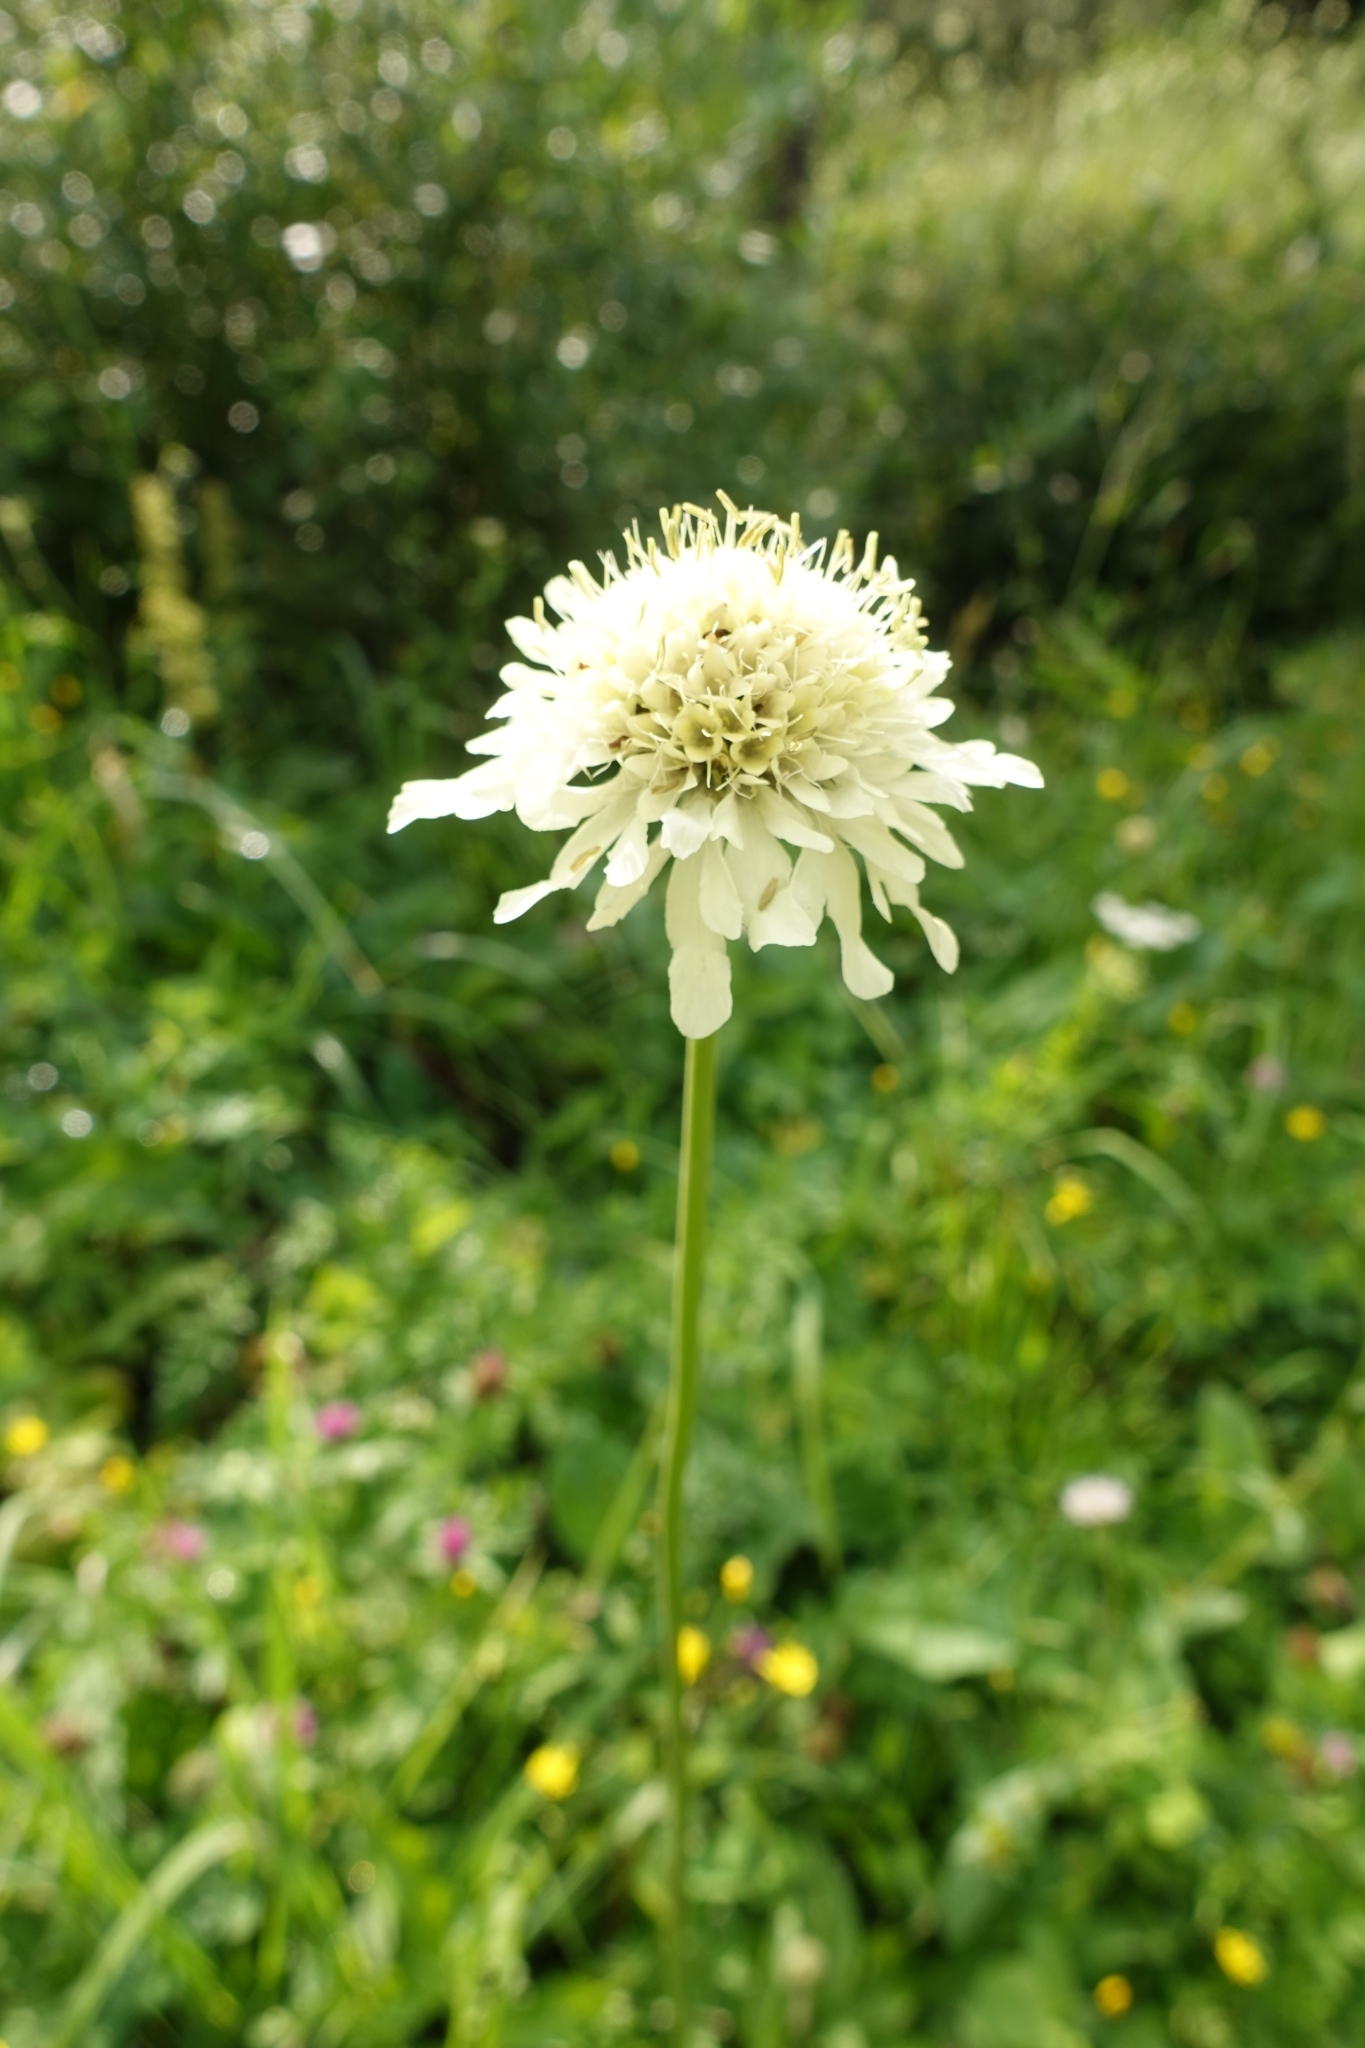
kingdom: Plantae
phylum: Tracheophyta
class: Magnoliopsida
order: Dipsacales
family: Caprifoliaceae
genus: Cephalaria
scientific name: Cephalaria gigantea
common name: Tatarian cephalaria
